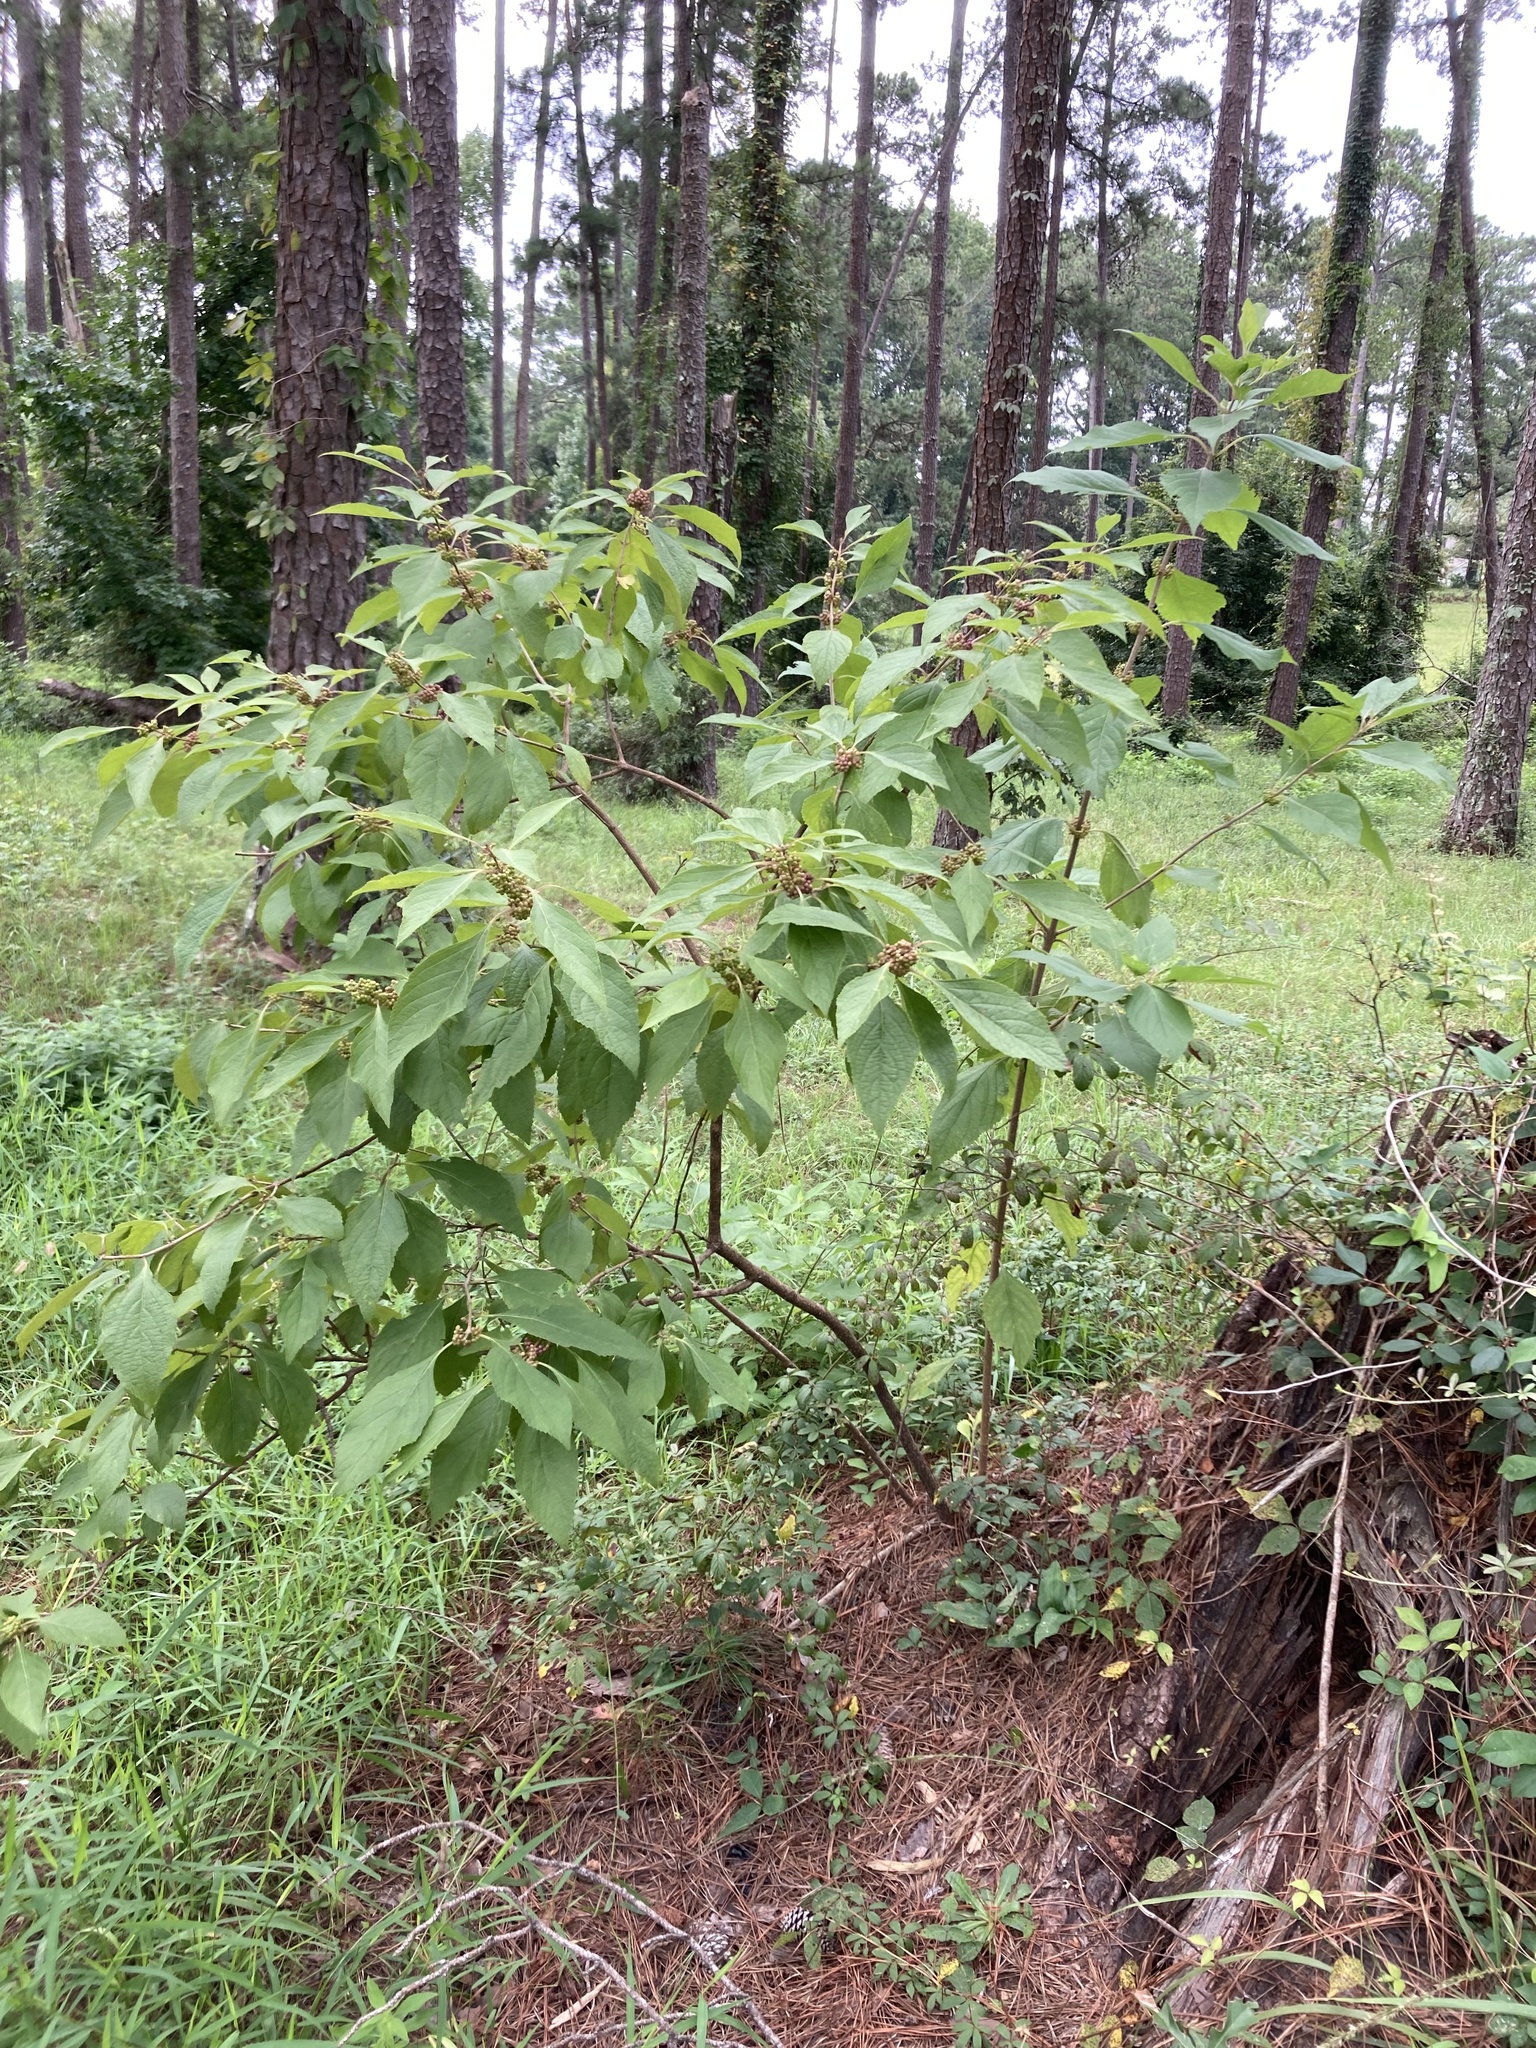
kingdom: Plantae
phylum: Tracheophyta
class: Magnoliopsida
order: Lamiales
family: Lamiaceae
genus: Callicarpa
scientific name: Callicarpa americana
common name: American beautyberry
